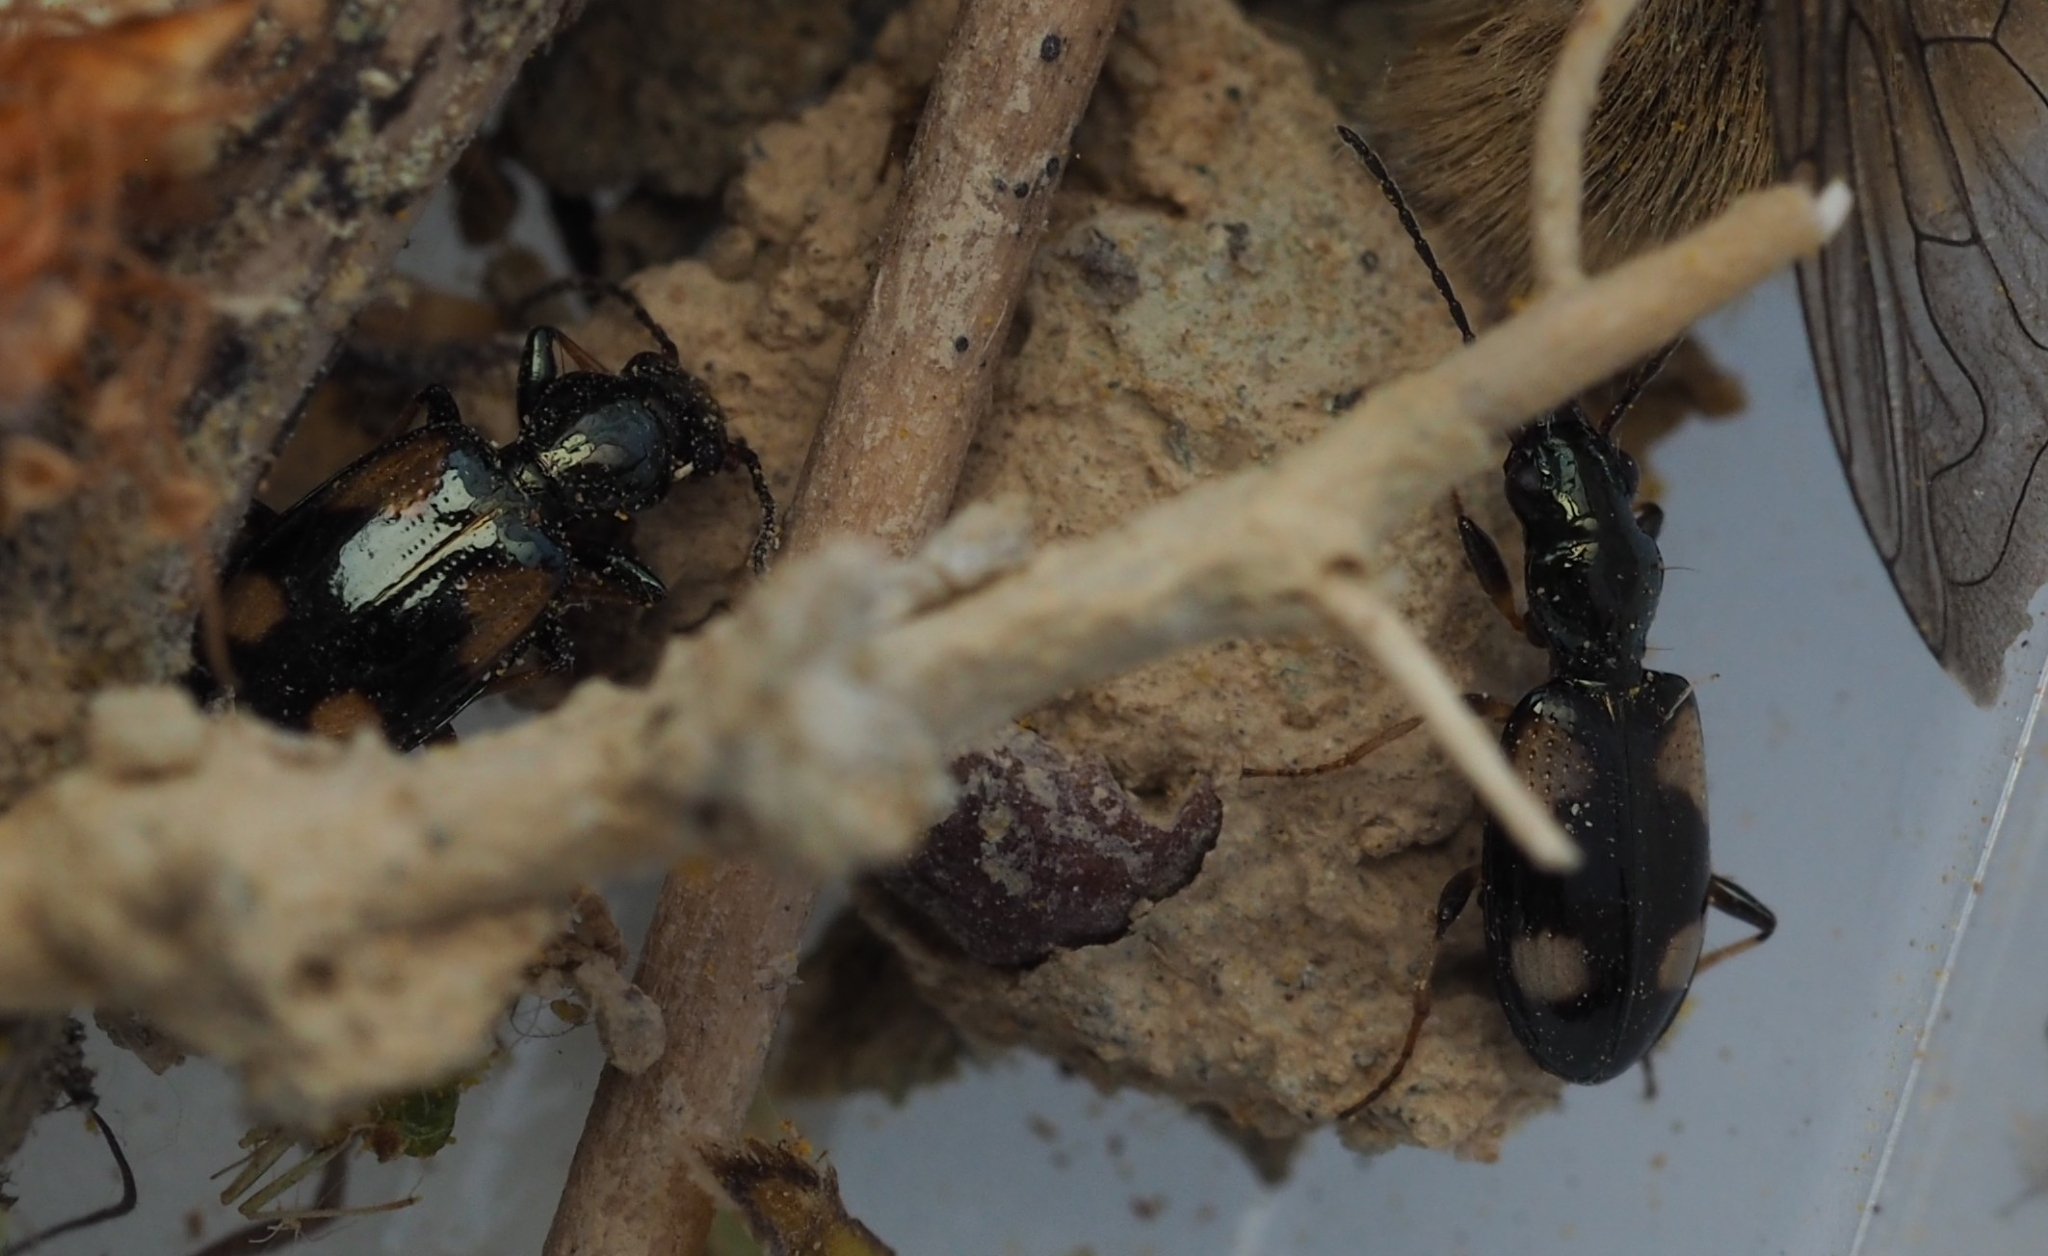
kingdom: Animalia
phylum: Arthropoda
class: Insecta
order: Coleoptera
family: Carabidae
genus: Bembidion
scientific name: Bembidion quadrimaculatum
